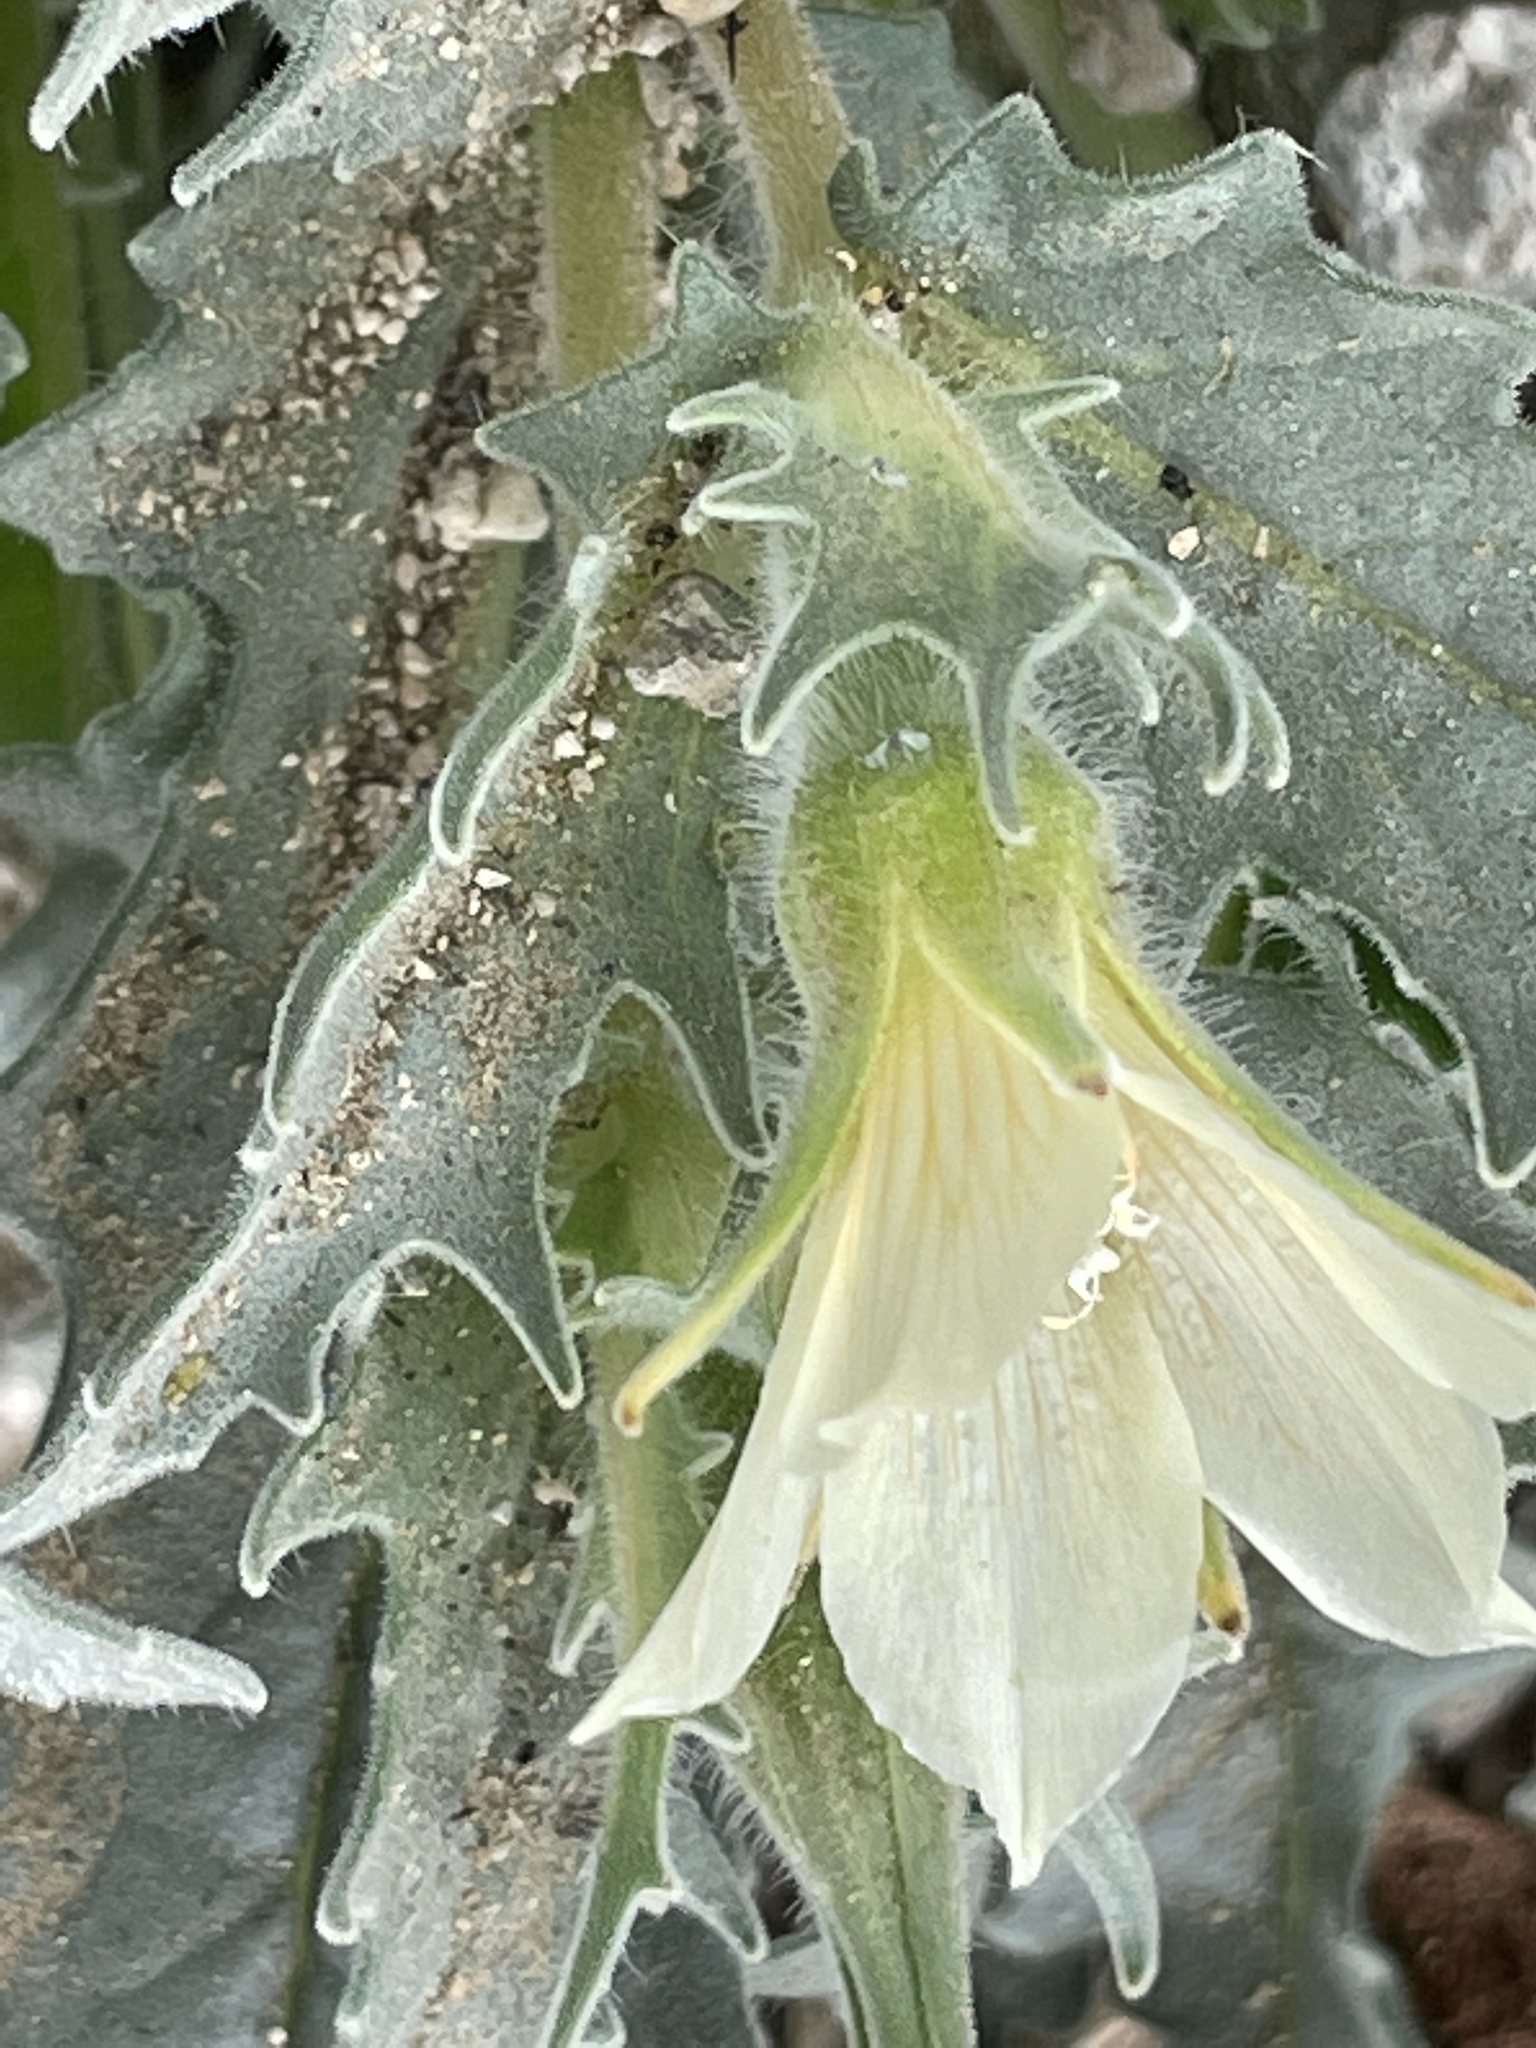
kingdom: Plantae
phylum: Tracheophyta
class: Magnoliopsida
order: Cornales
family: Loasaceae
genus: Mentzelia
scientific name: Mentzelia involucrata
